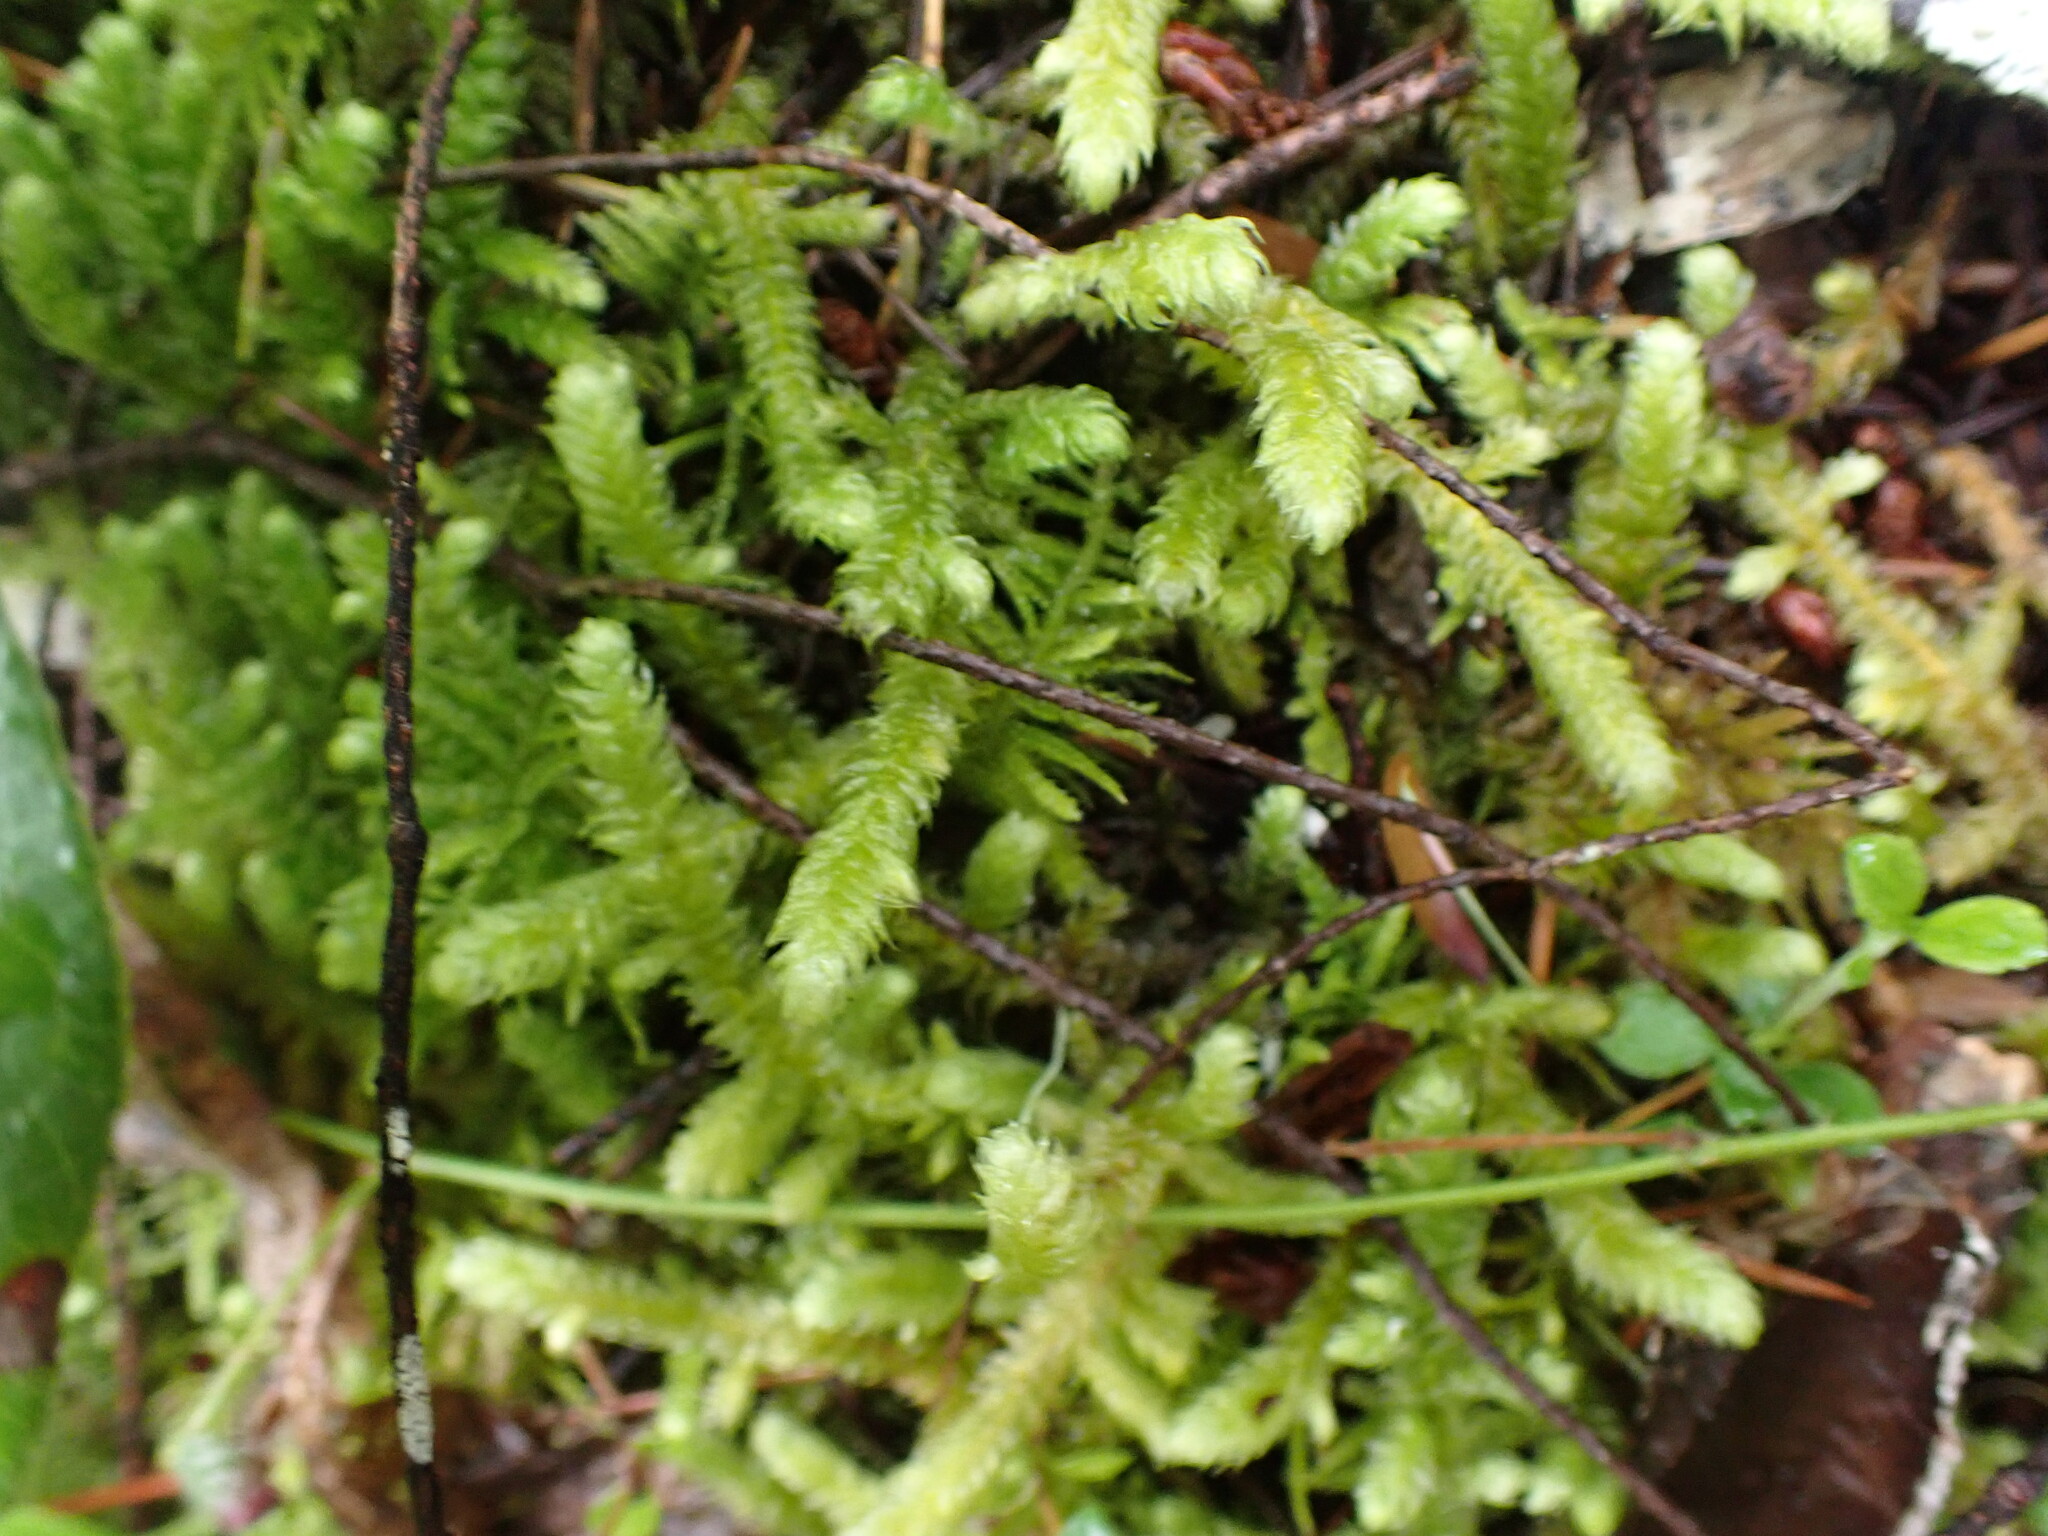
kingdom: Plantae
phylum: Bryophyta
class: Bryopsida
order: Hypnales
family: Hylocomiaceae
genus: Rhytidiopsis
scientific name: Rhytidiopsis robusta
